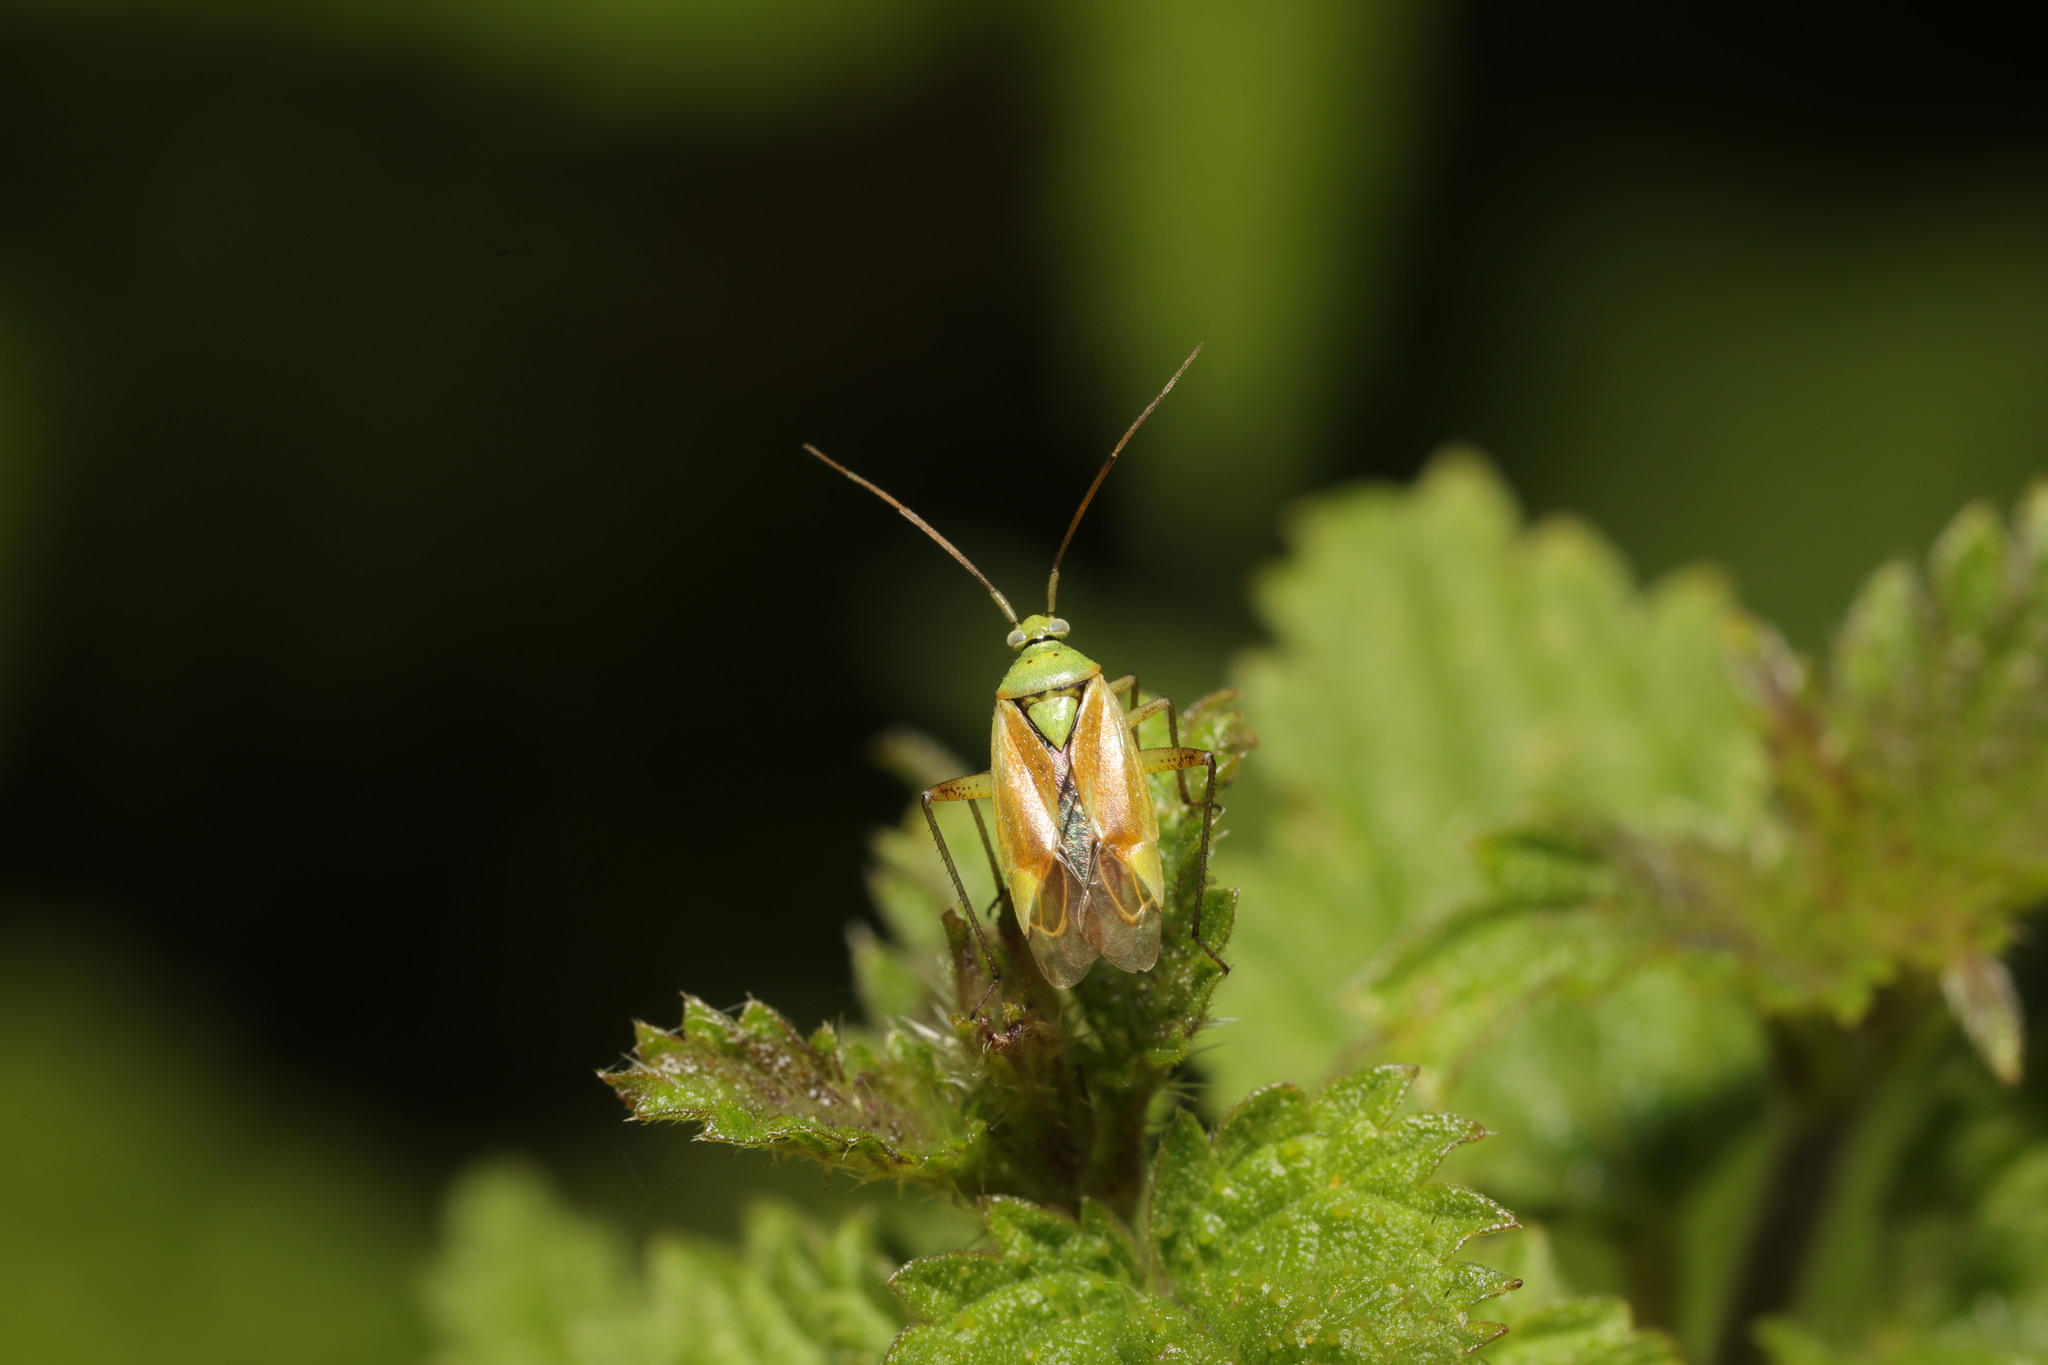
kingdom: Animalia
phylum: Arthropoda
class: Insecta
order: Hemiptera
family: Miridae
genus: Closterotomus
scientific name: Closterotomus norvegicus
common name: Plant bug
